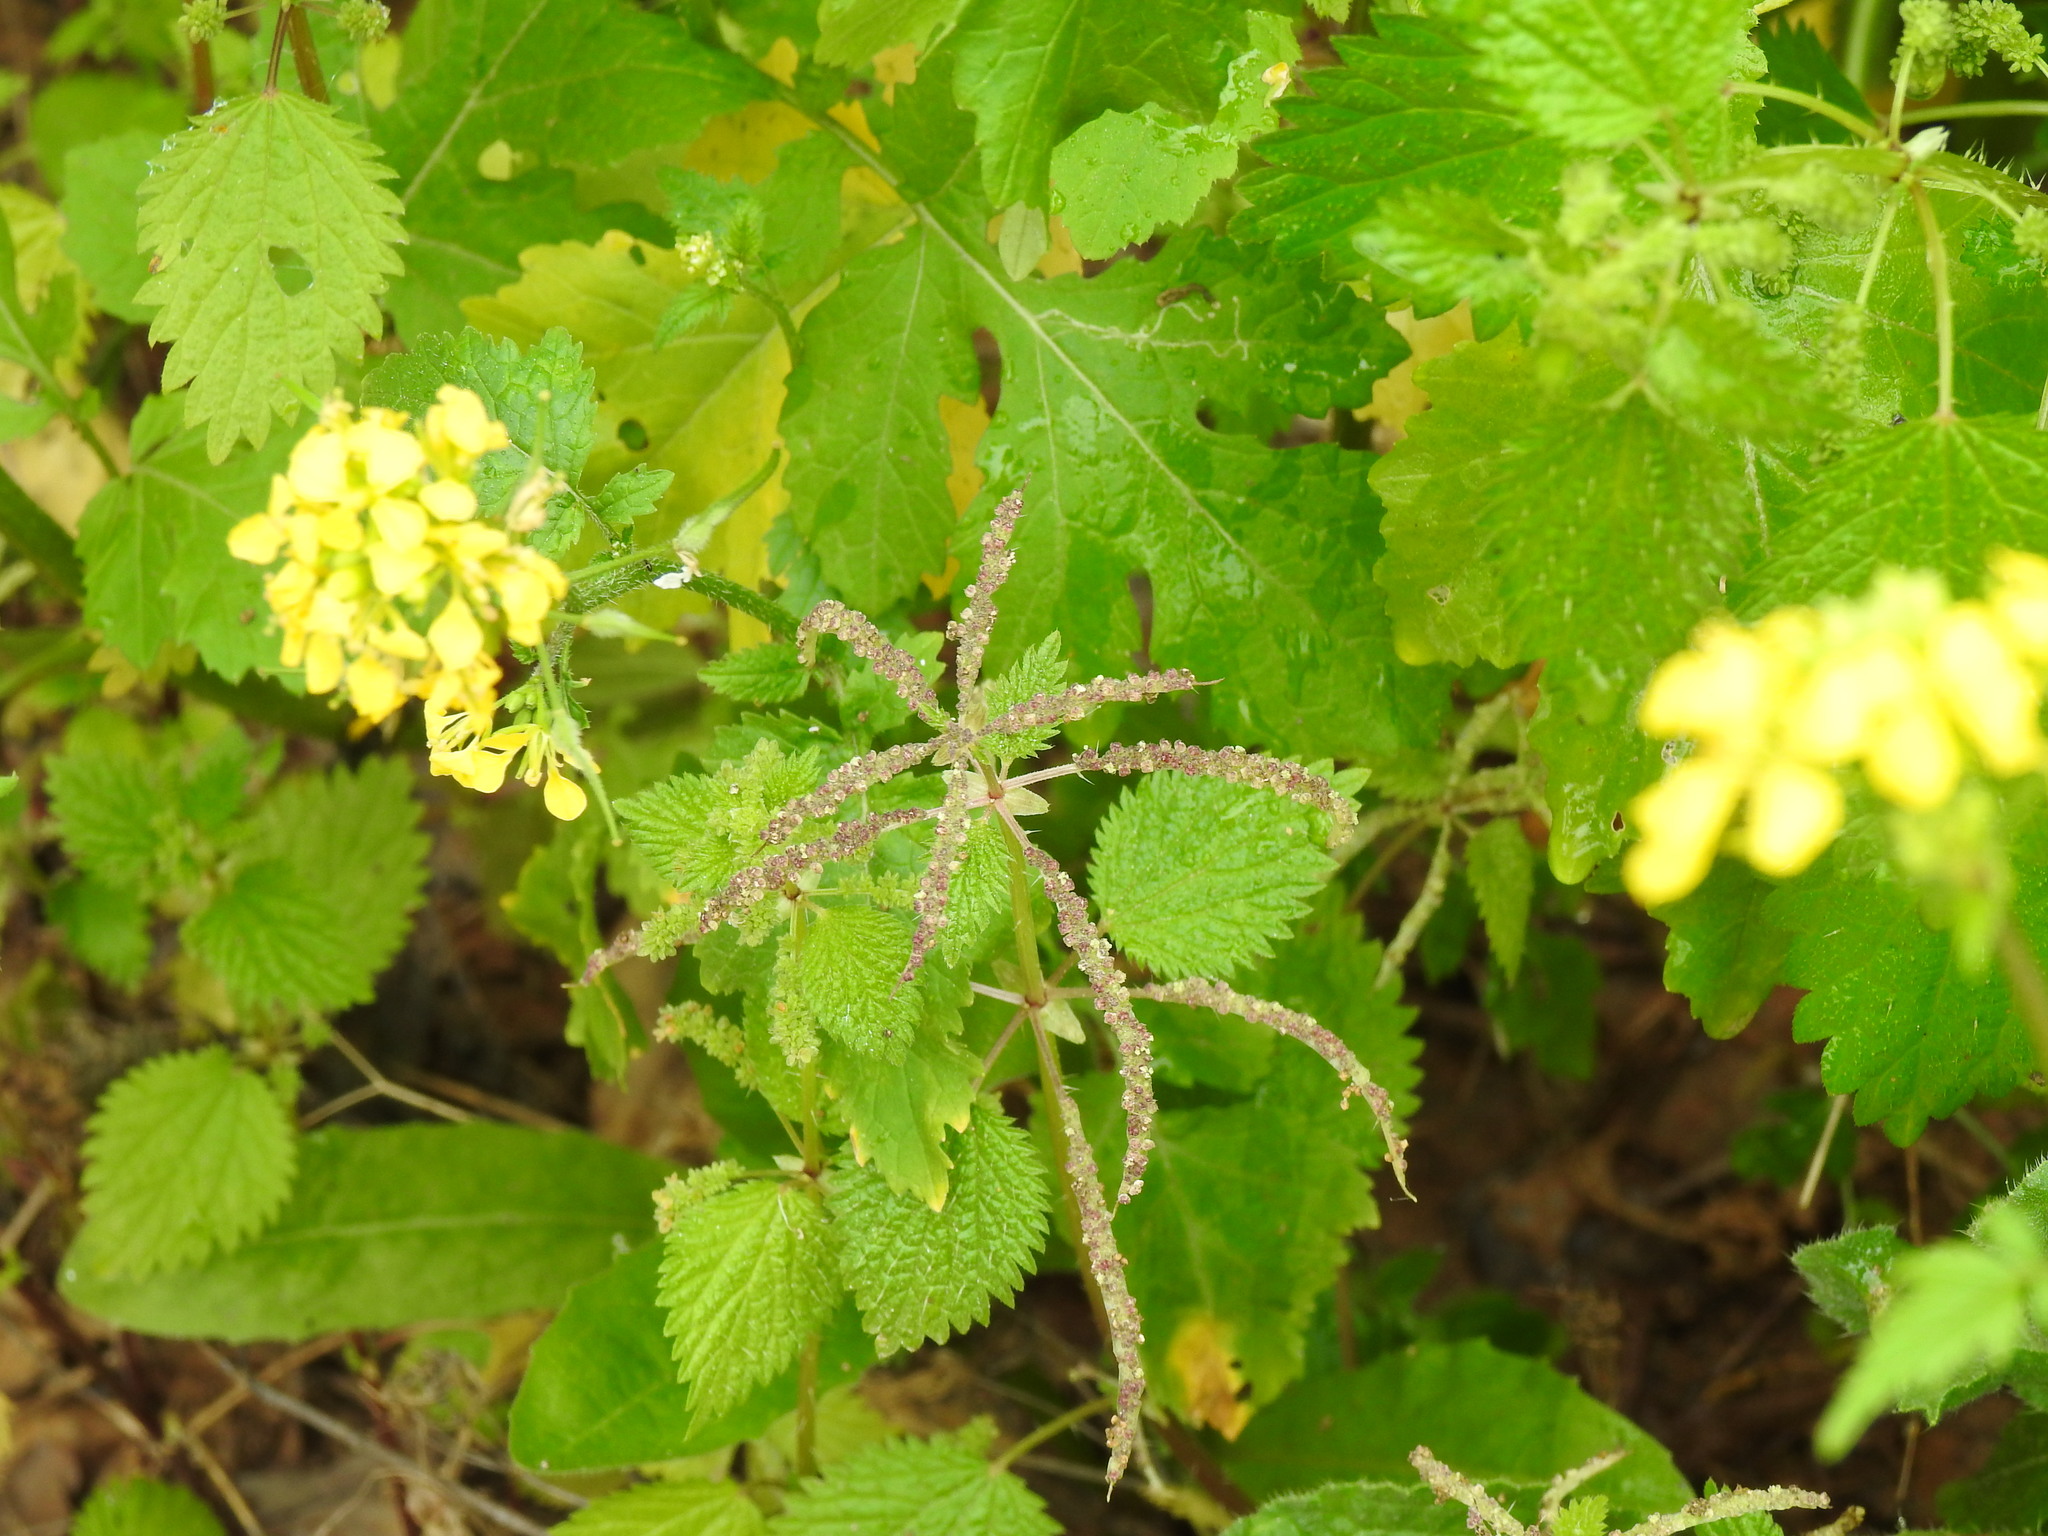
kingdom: Plantae
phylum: Tracheophyta
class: Magnoliopsida
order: Rosales
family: Urticaceae
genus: Urtica
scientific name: Urtica membranacea
